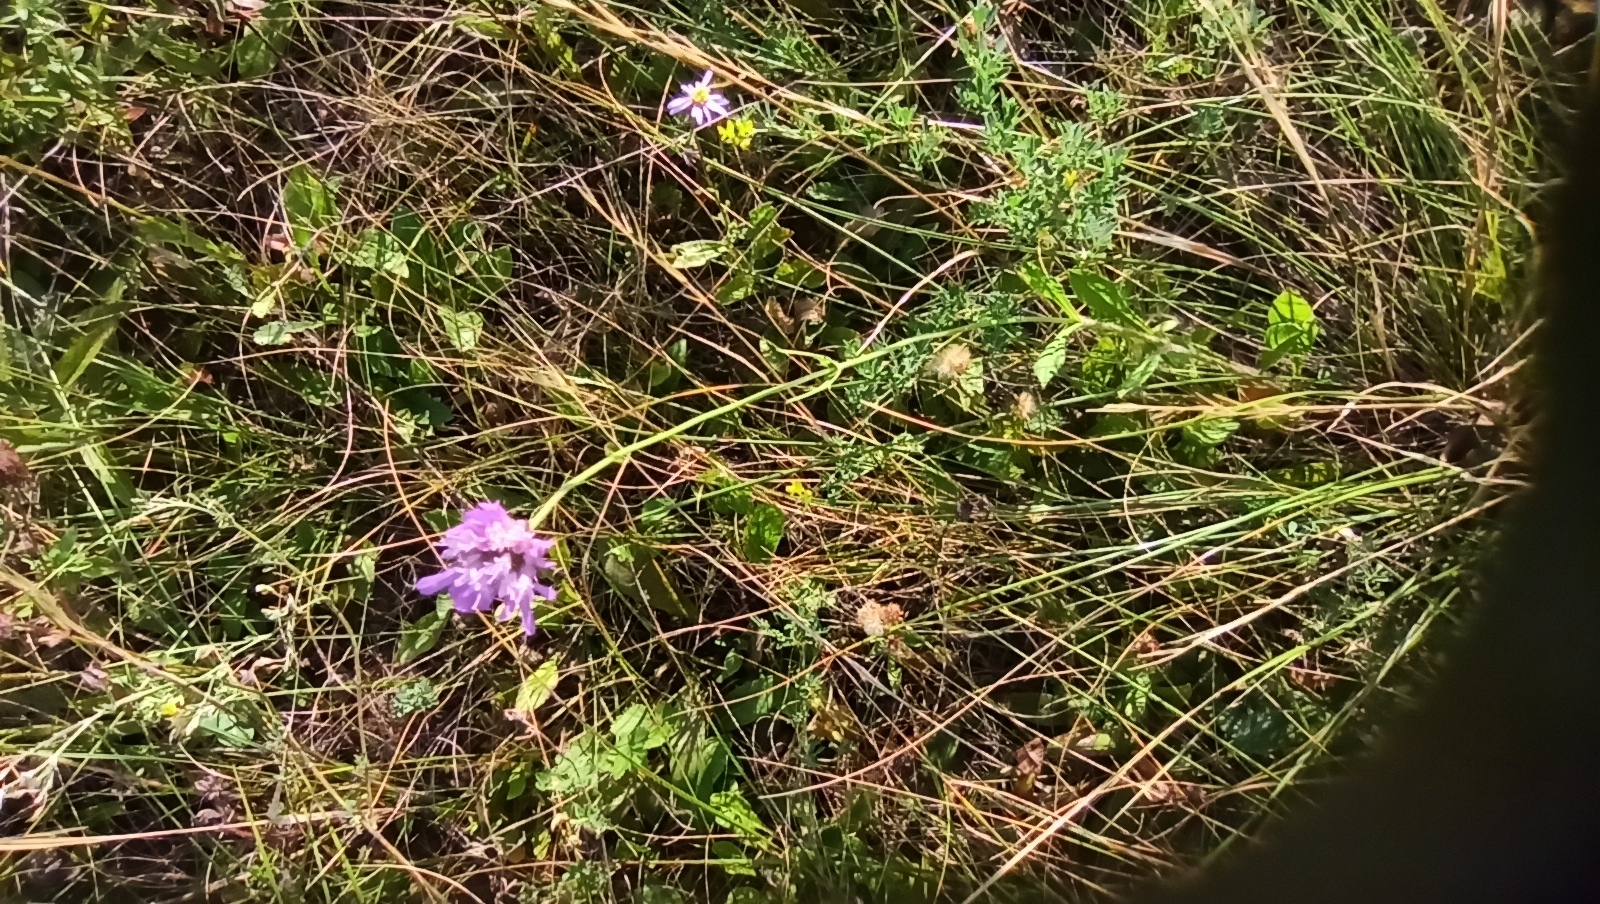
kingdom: Plantae
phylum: Tracheophyta
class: Magnoliopsida
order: Dipsacales
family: Caprifoliaceae
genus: Knautia
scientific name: Knautia arvensis
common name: Field scabiosa
